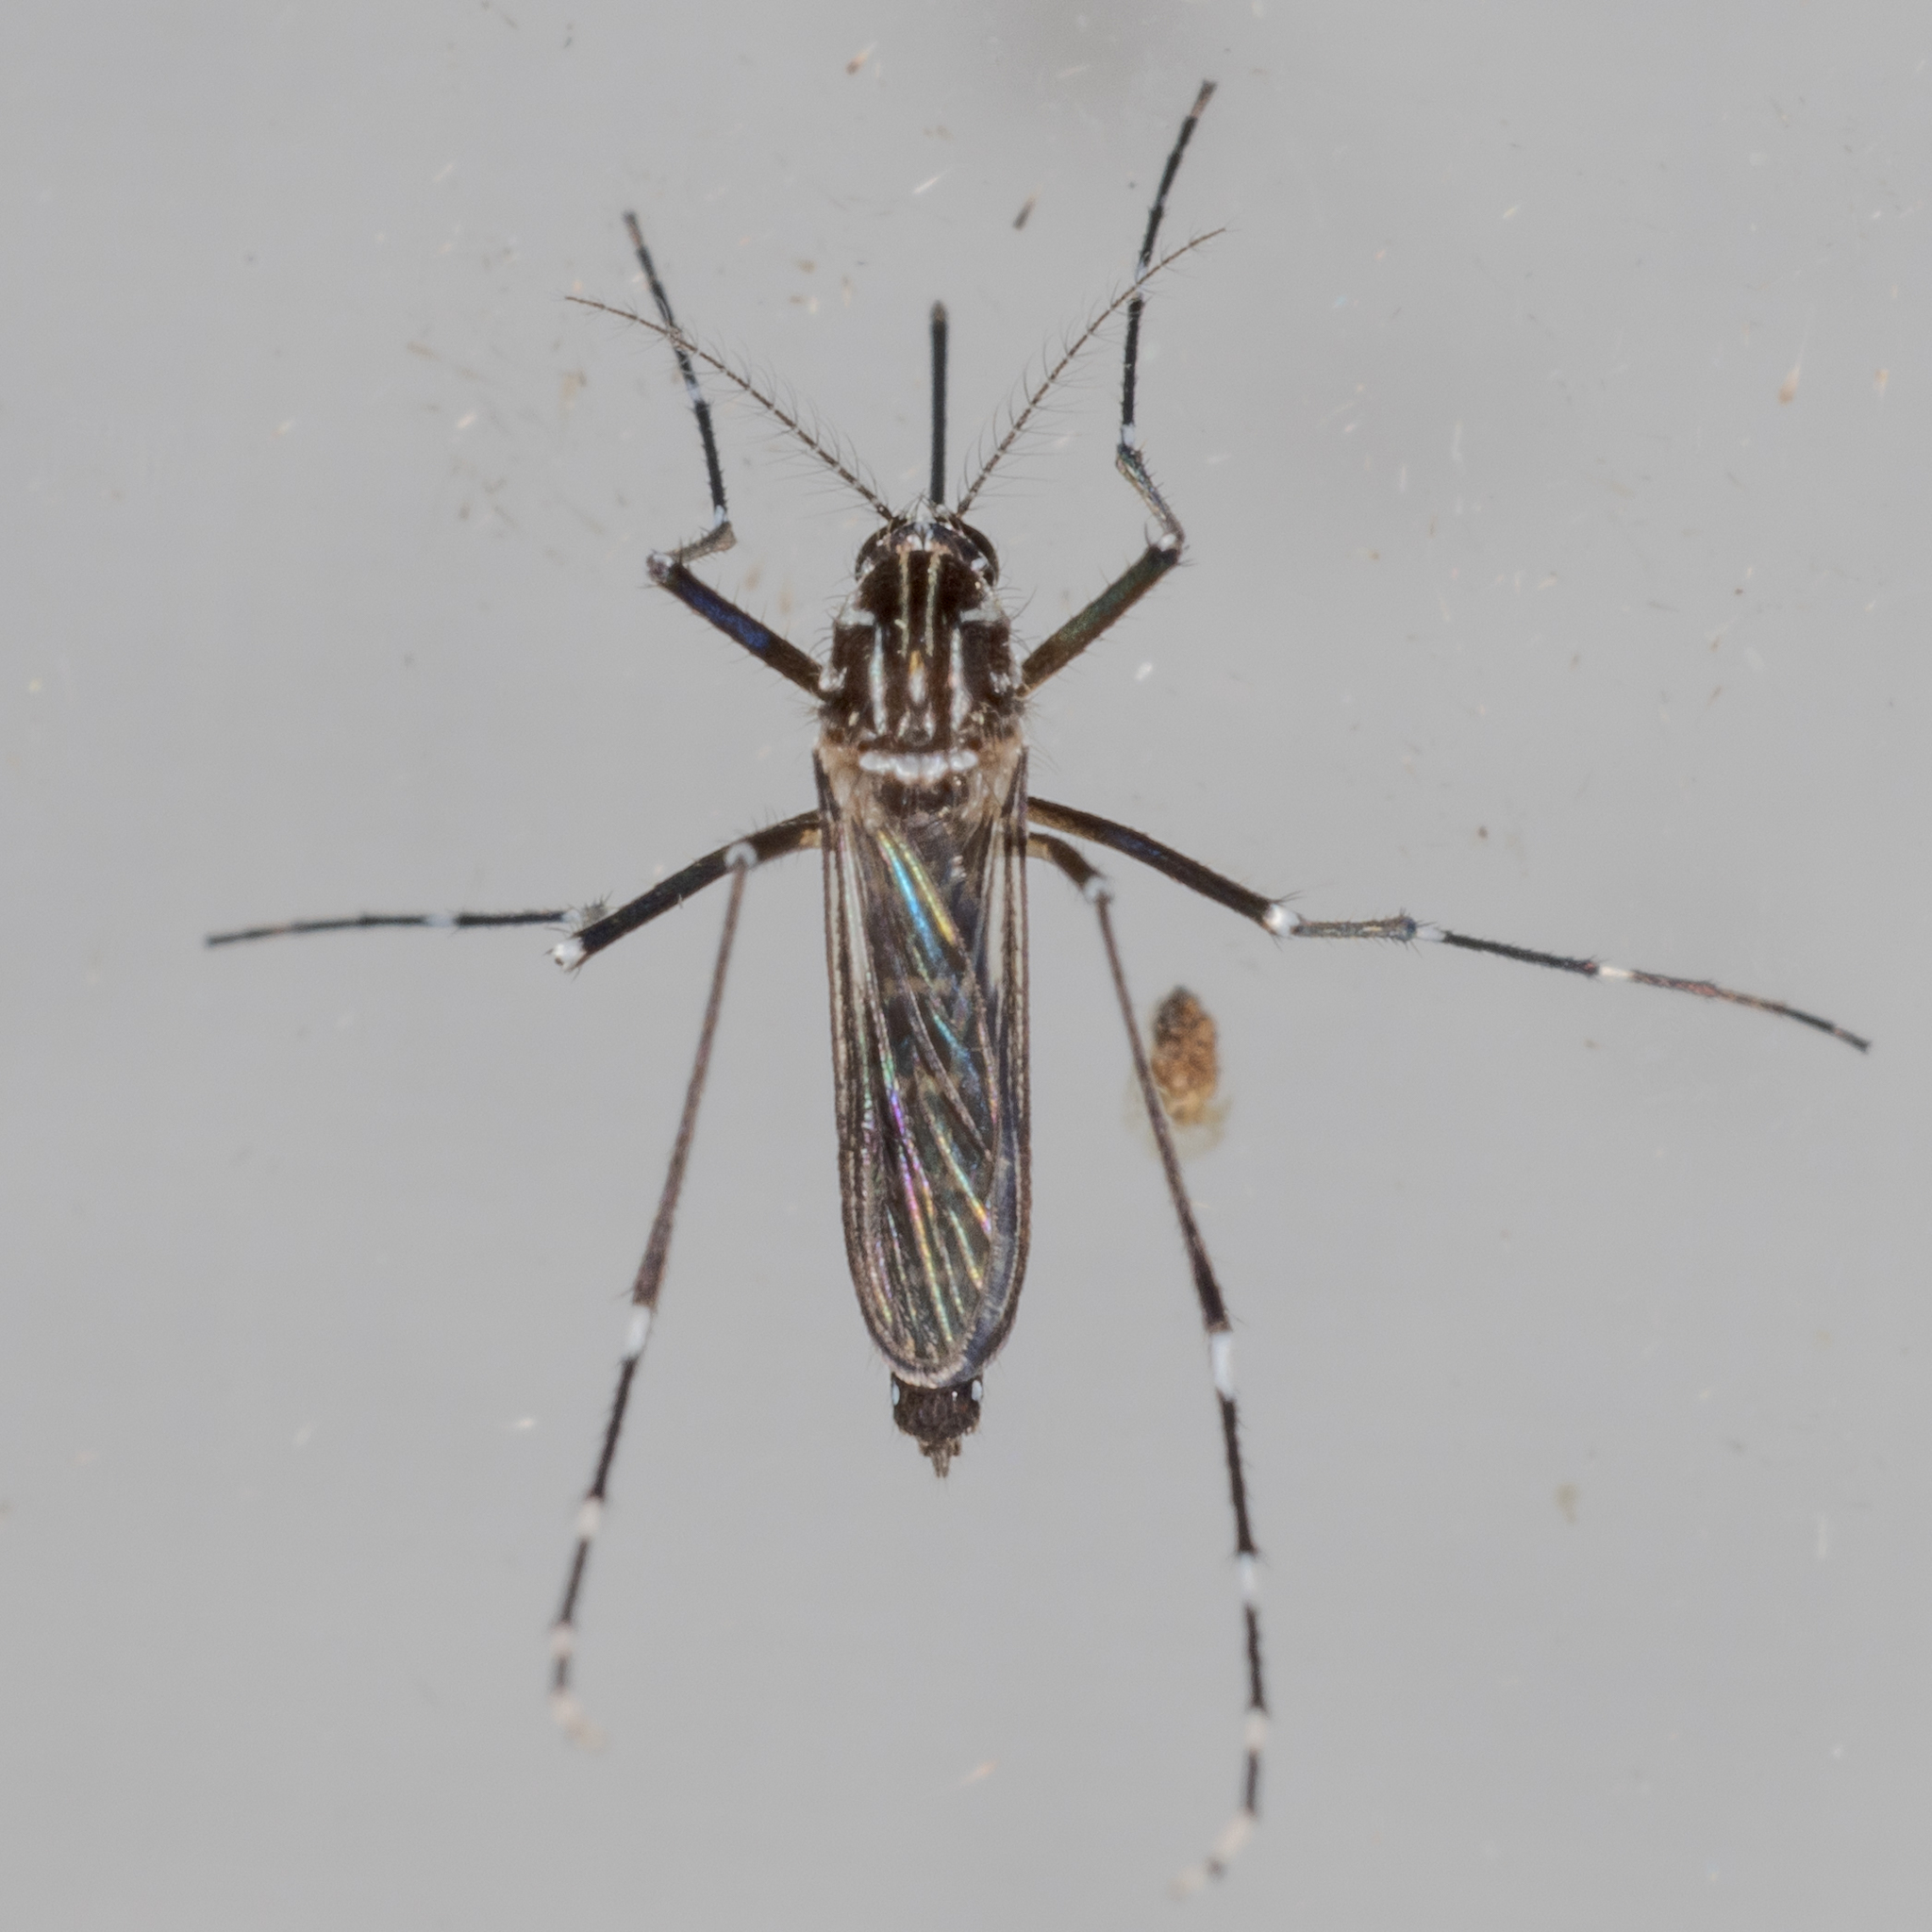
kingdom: Animalia
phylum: Arthropoda
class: Insecta
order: Diptera
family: Culicidae
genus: Aedes
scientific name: Aedes aegypti
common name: Yellow fever mosquito
